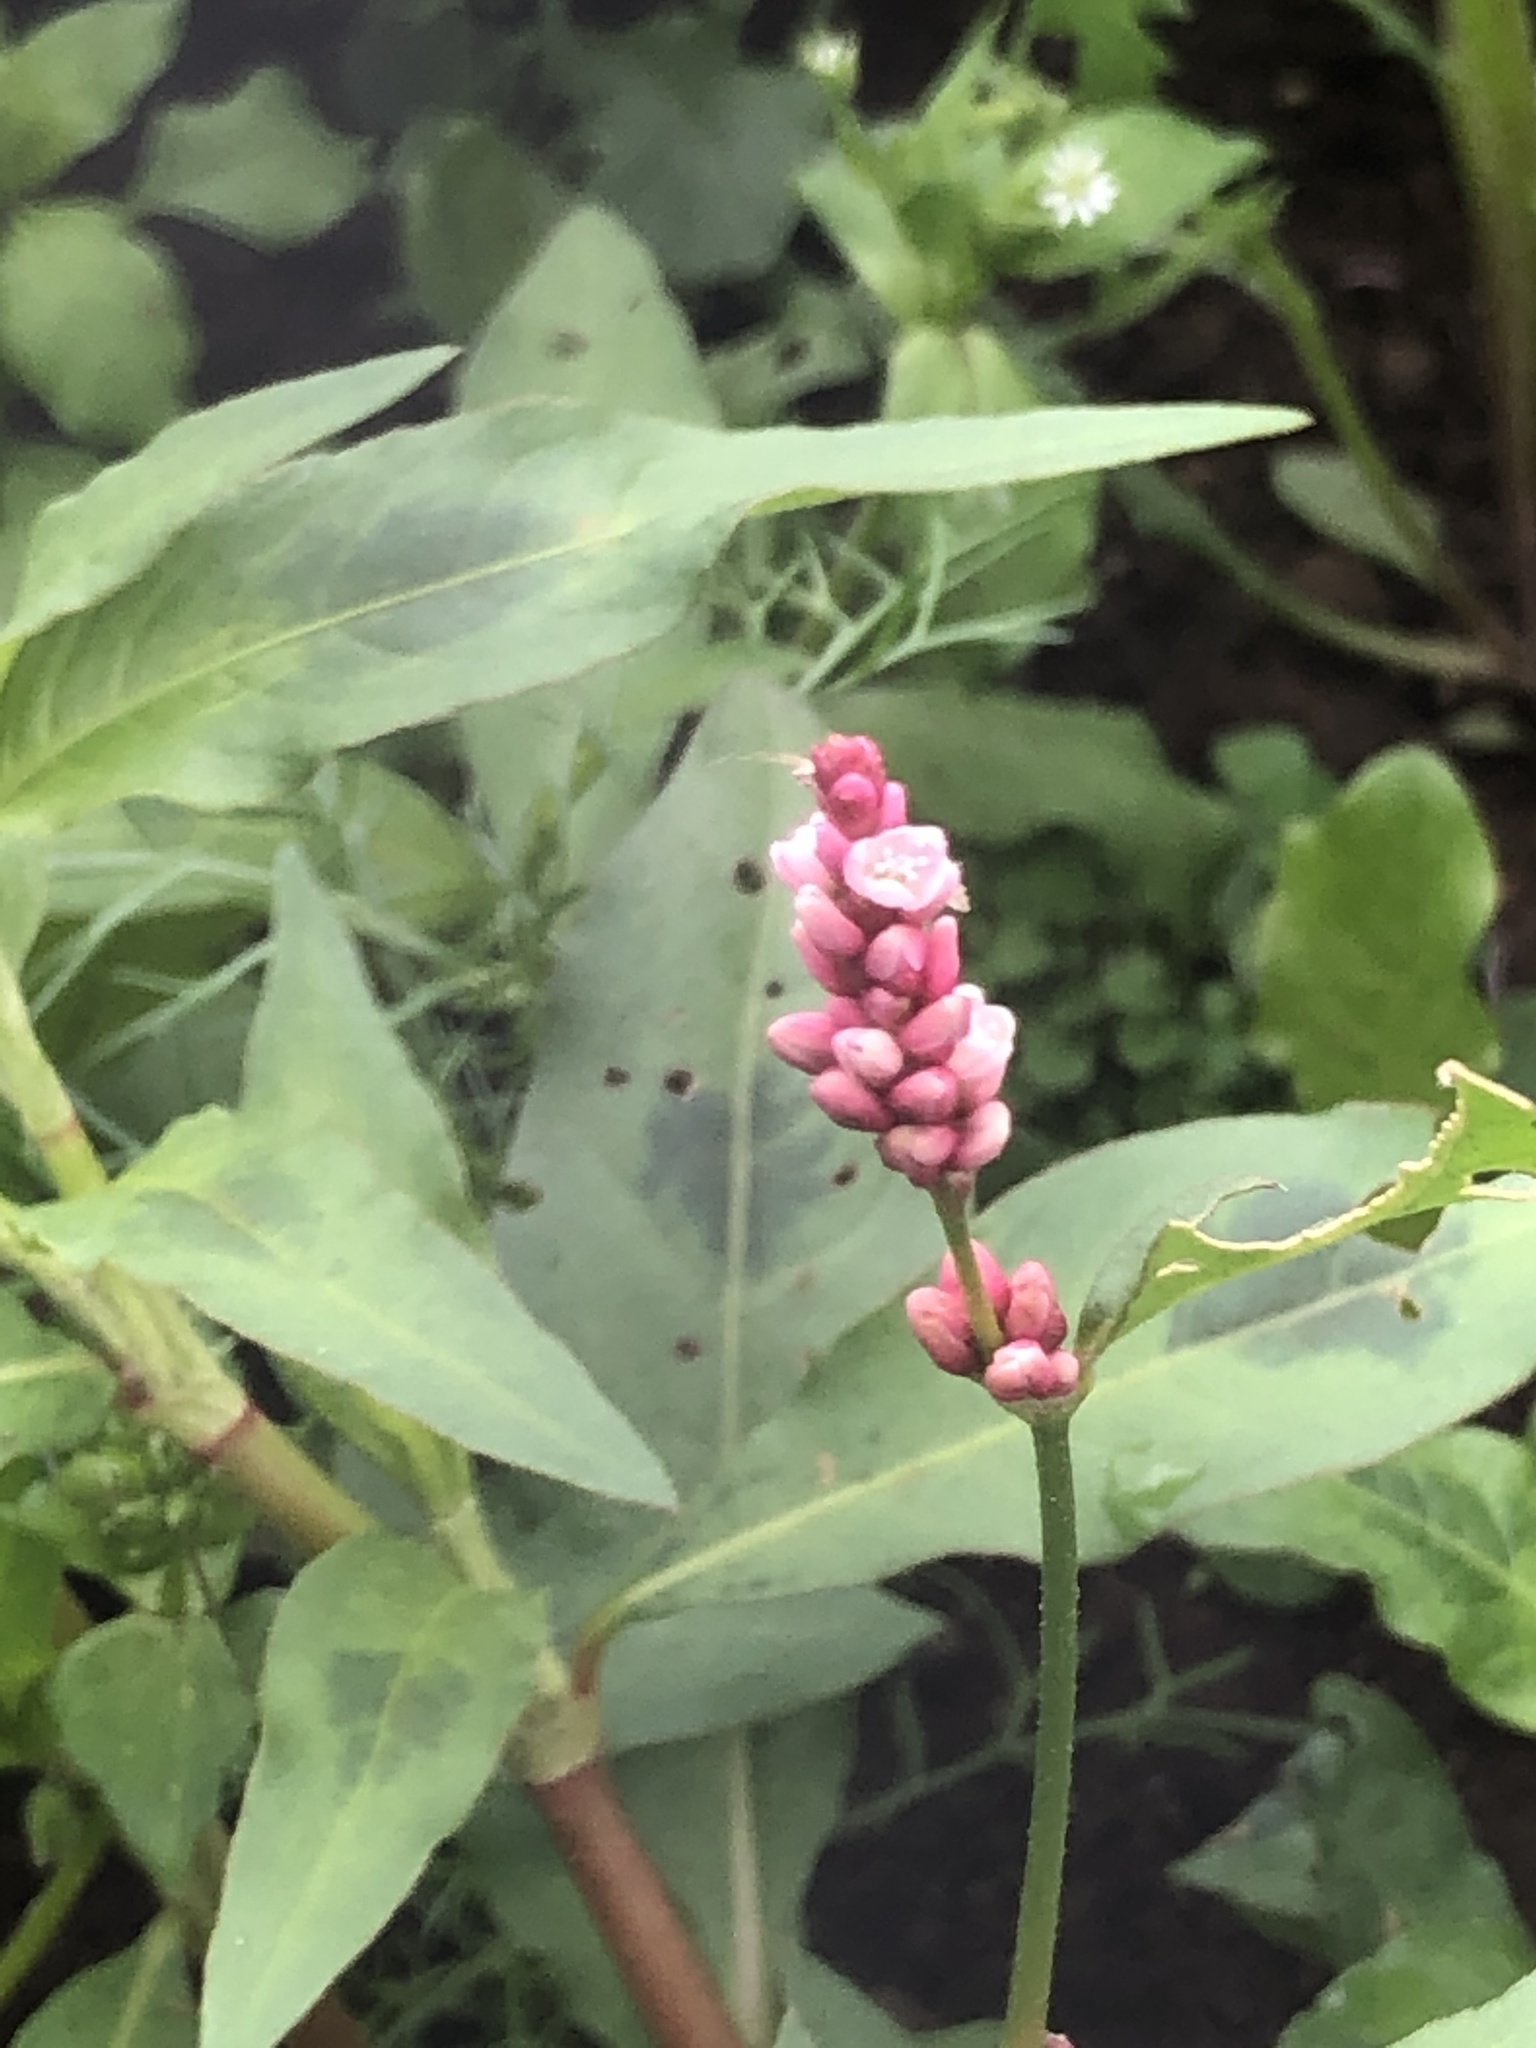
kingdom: Plantae
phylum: Tracheophyta
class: Magnoliopsida
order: Caryophyllales
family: Polygonaceae
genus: Persicaria
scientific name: Persicaria maculosa
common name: Redshank
